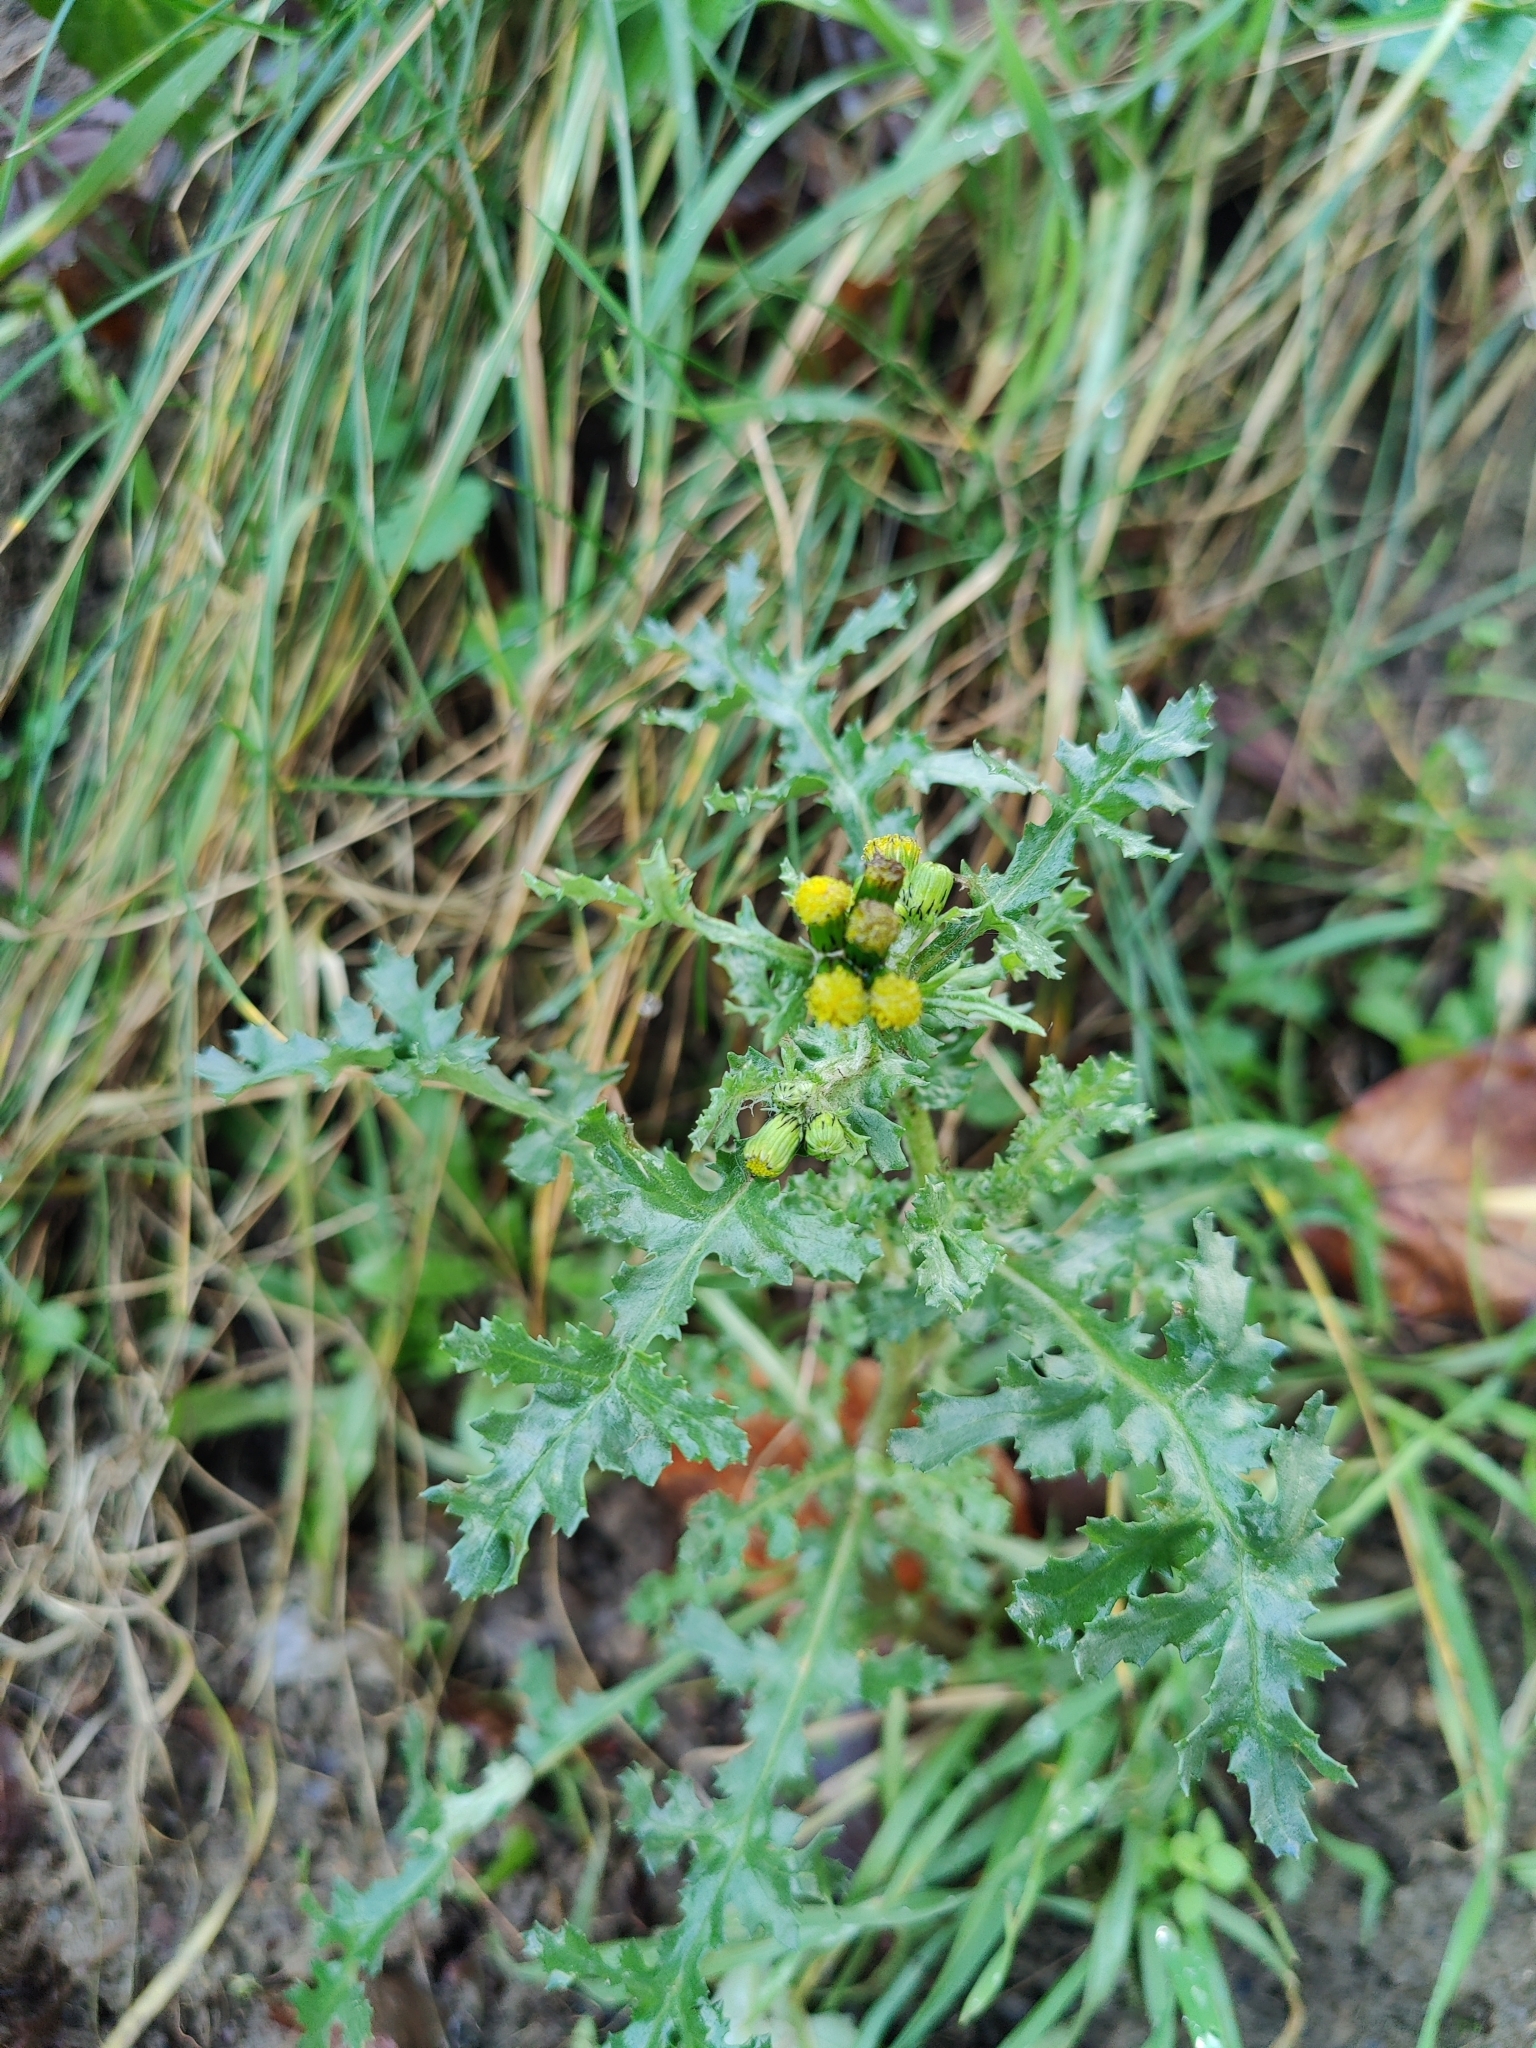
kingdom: Plantae
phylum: Tracheophyta
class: Magnoliopsida
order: Asterales
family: Asteraceae
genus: Senecio
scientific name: Senecio vulgaris
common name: Old-man-in-the-spring
